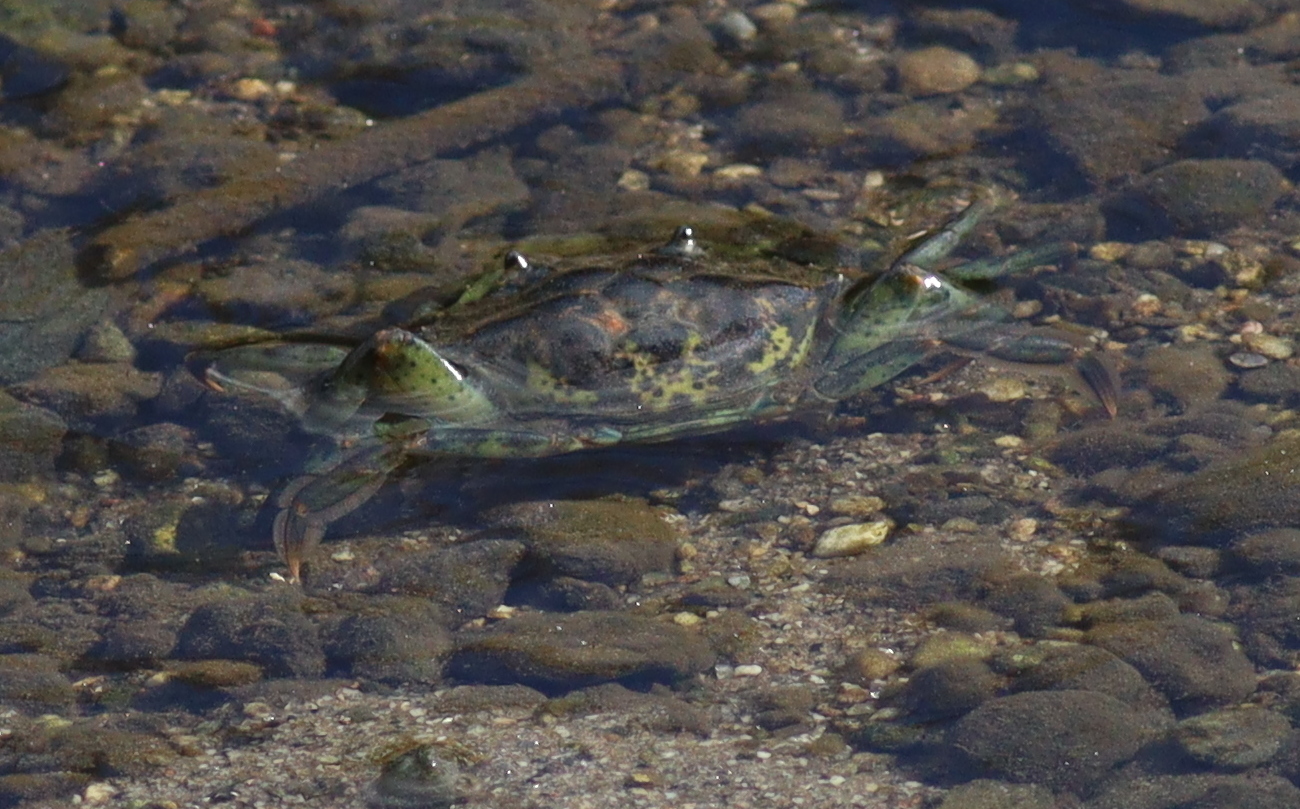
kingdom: Animalia
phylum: Arthropoda
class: Malacostraca
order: Decapoda
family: Carcinidae
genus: Carcinus
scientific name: Carcinus maenas
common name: European green crab
